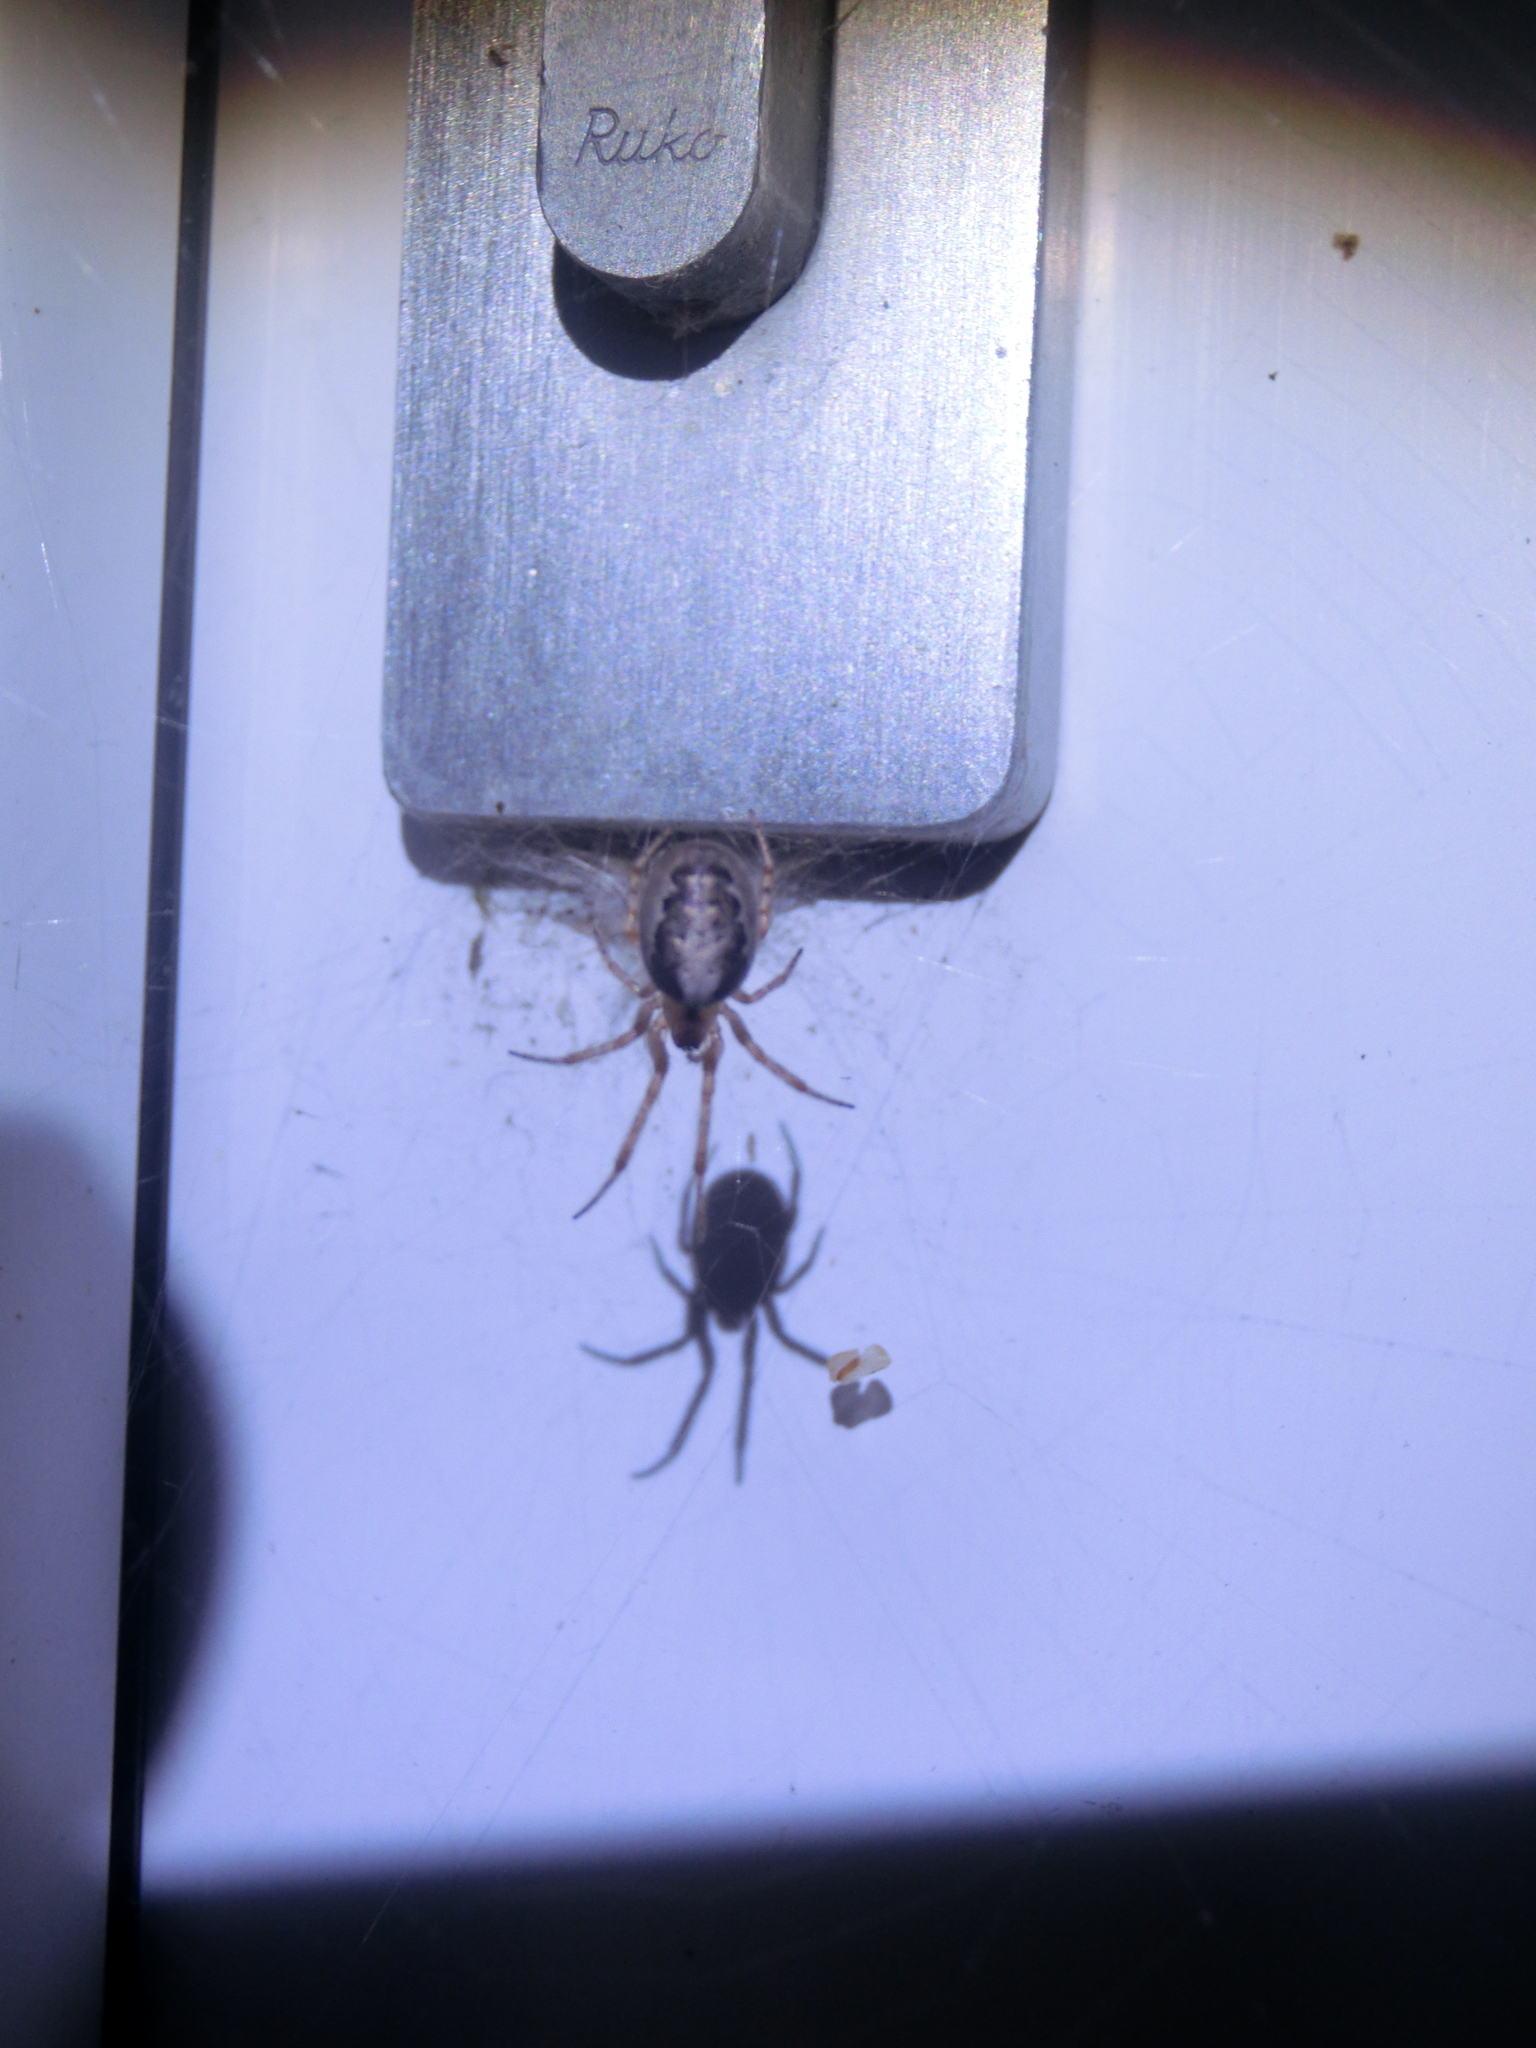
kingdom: Animalia
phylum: Arthropoda
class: Arachnida
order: Araneae
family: Araneidae
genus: Zygiella
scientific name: Zygiella x-notata
